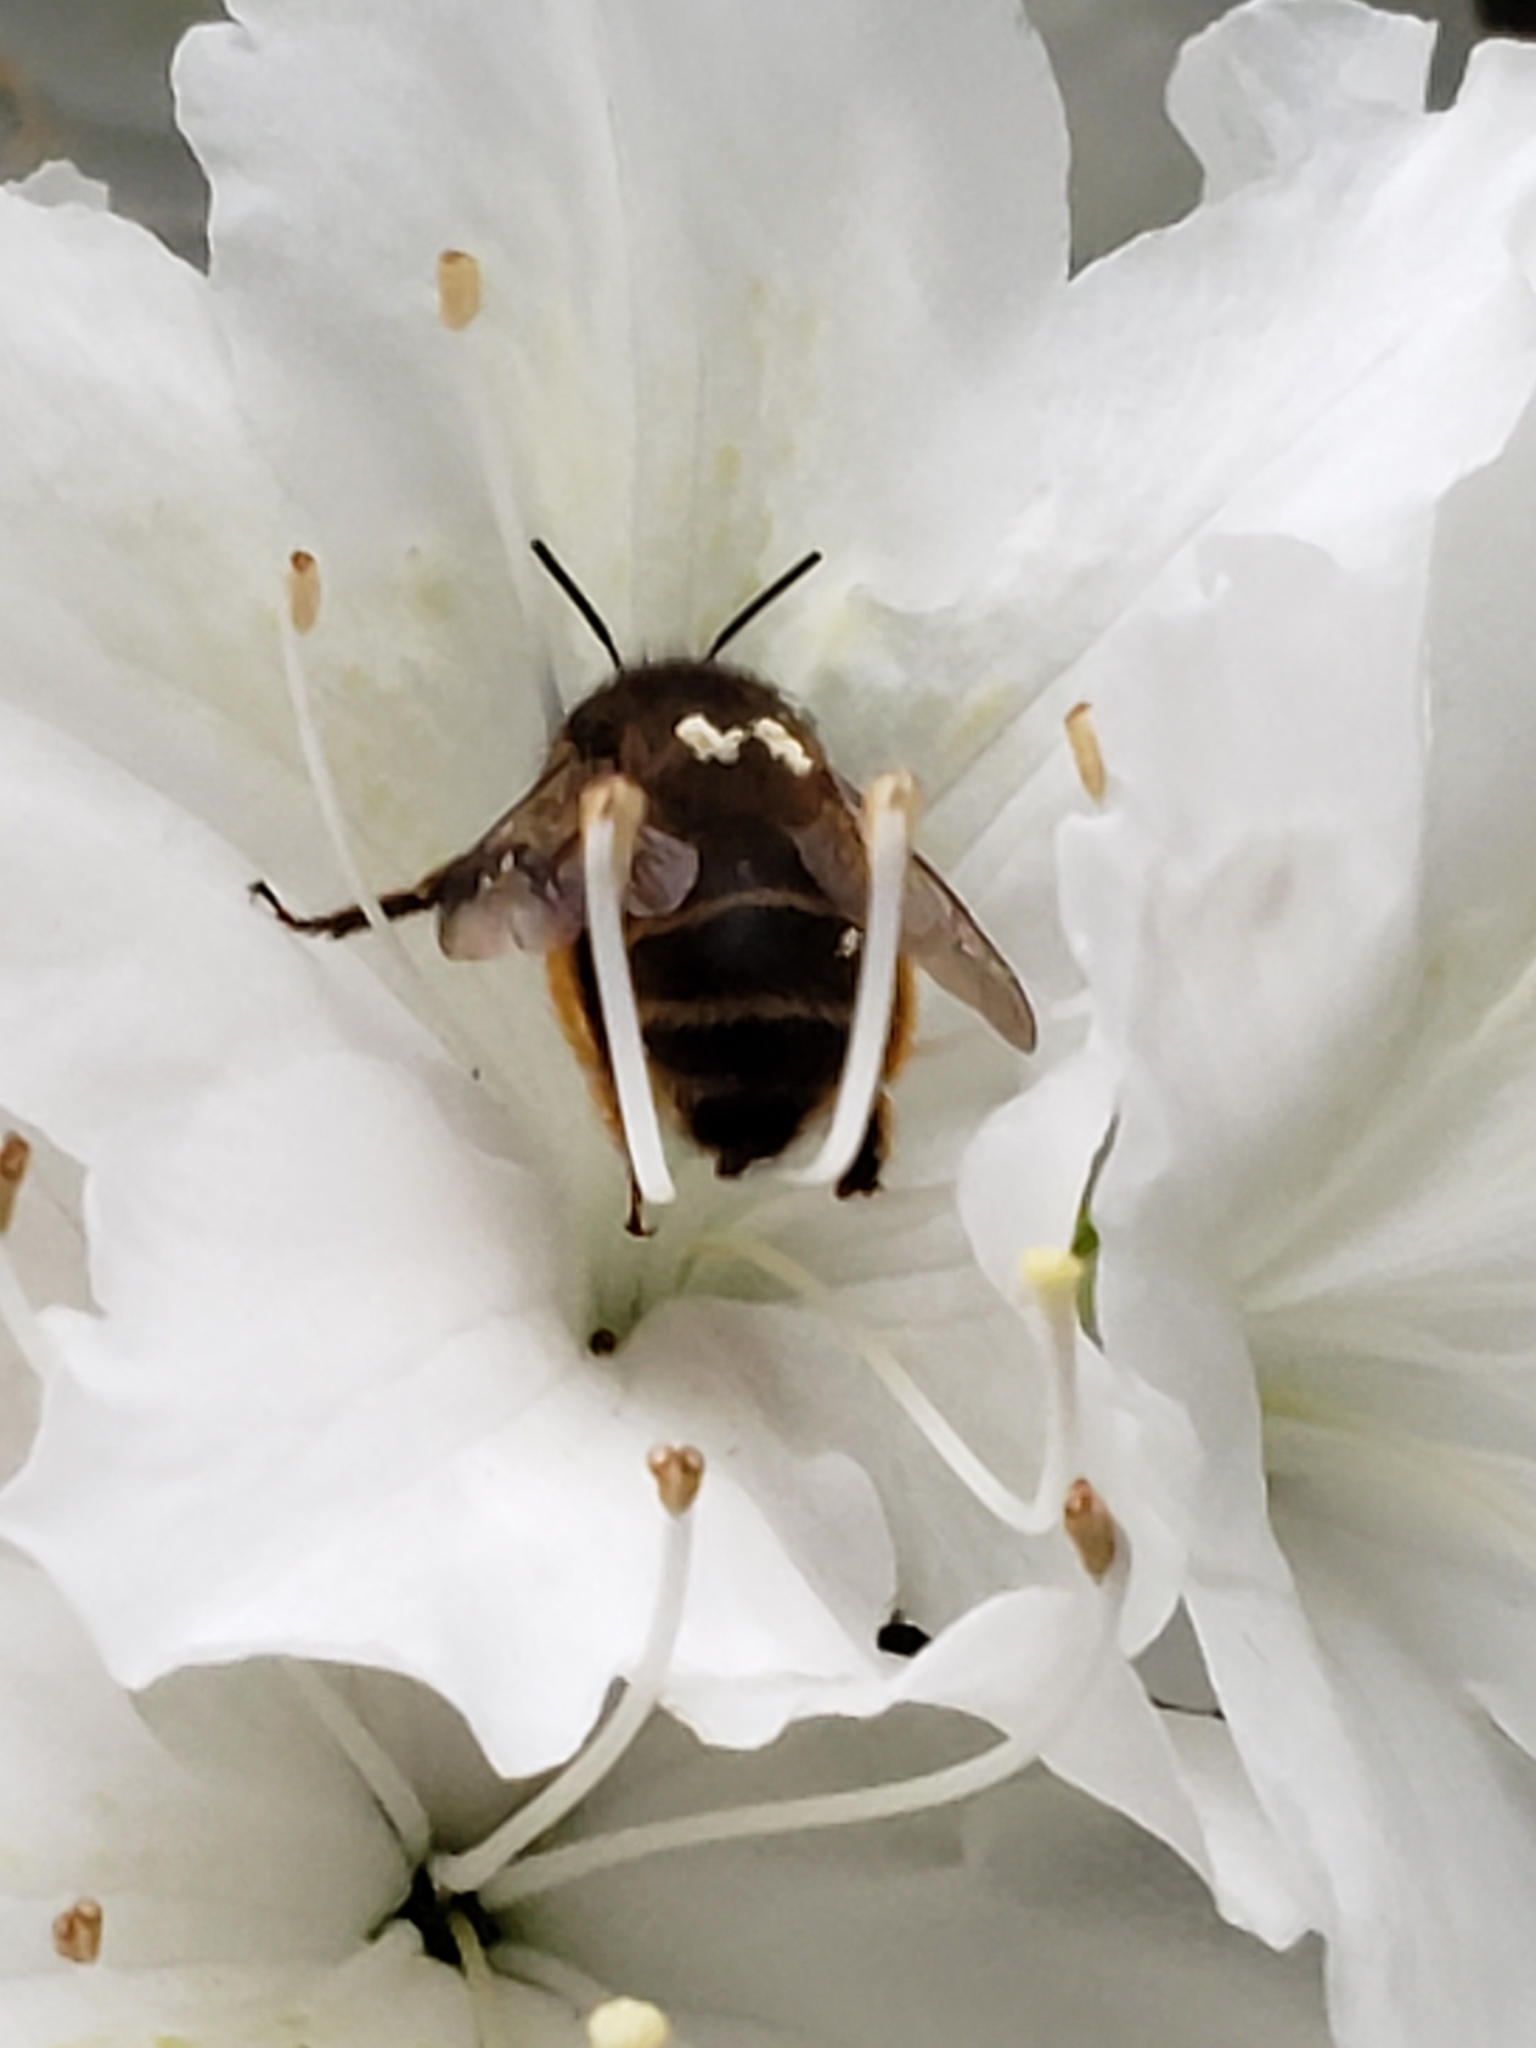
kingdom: Animalia
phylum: Arthropoda
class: Insecta
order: Hymenoptera
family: Apidae
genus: Anthophora
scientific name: Anthophora villosula
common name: Asian shaggy digger
